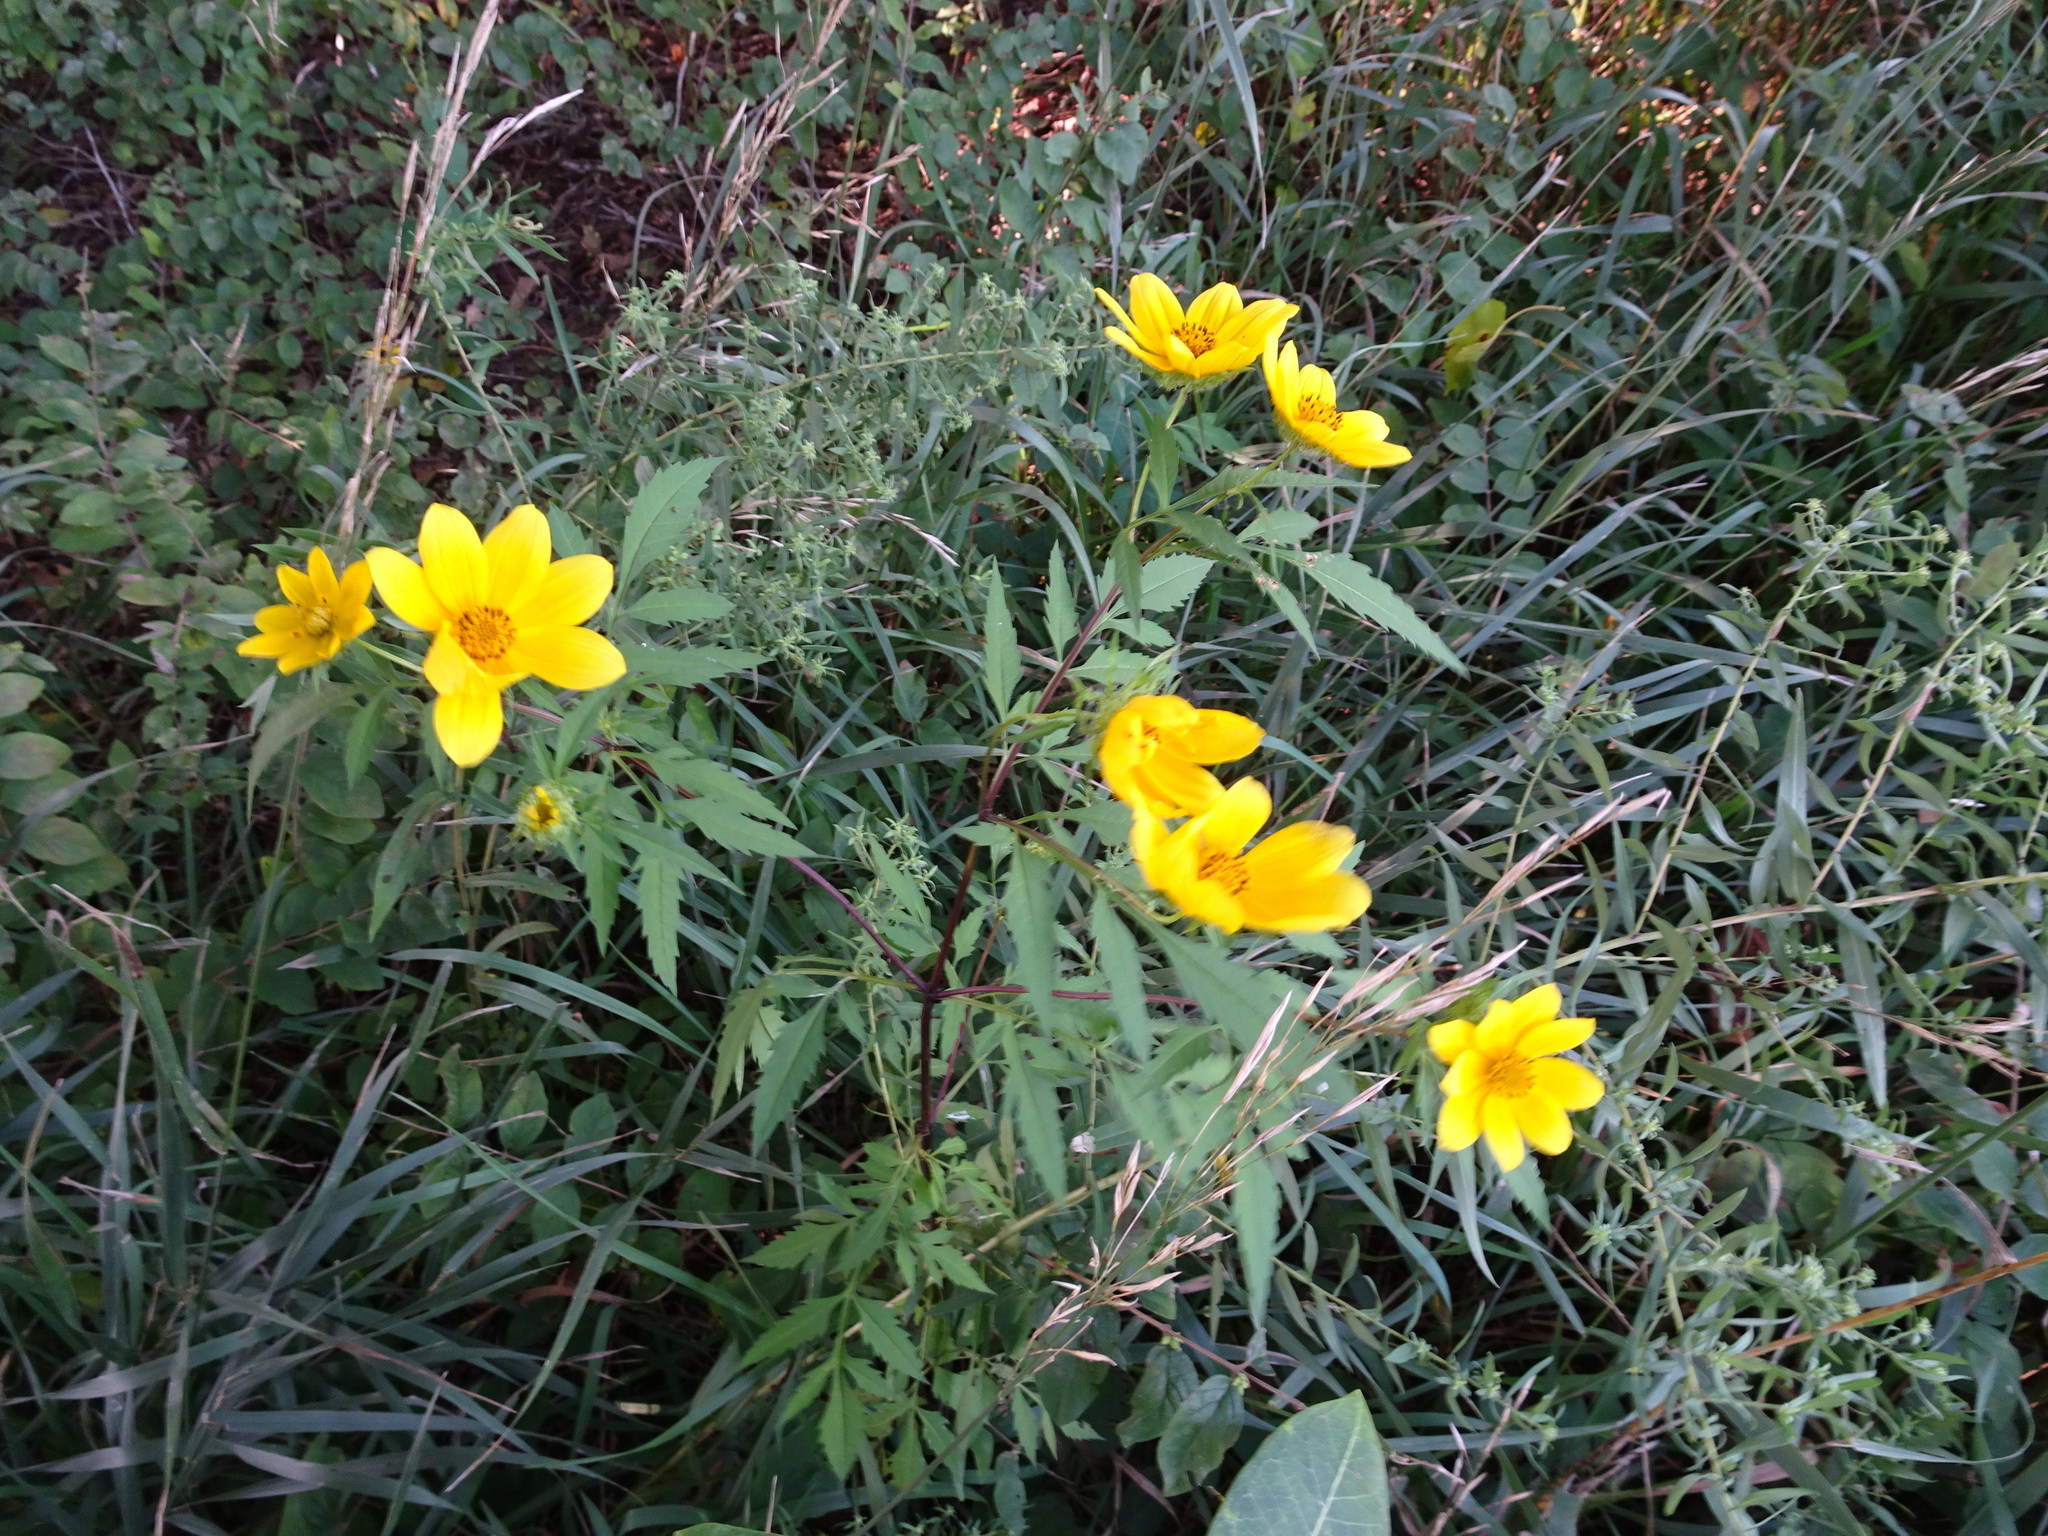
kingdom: Plantae
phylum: Tracheophyta
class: Magnoliopsida
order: Asterales
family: Asteraceae
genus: Bidens
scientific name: Bidens polylepis
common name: Awnless beggarticks
